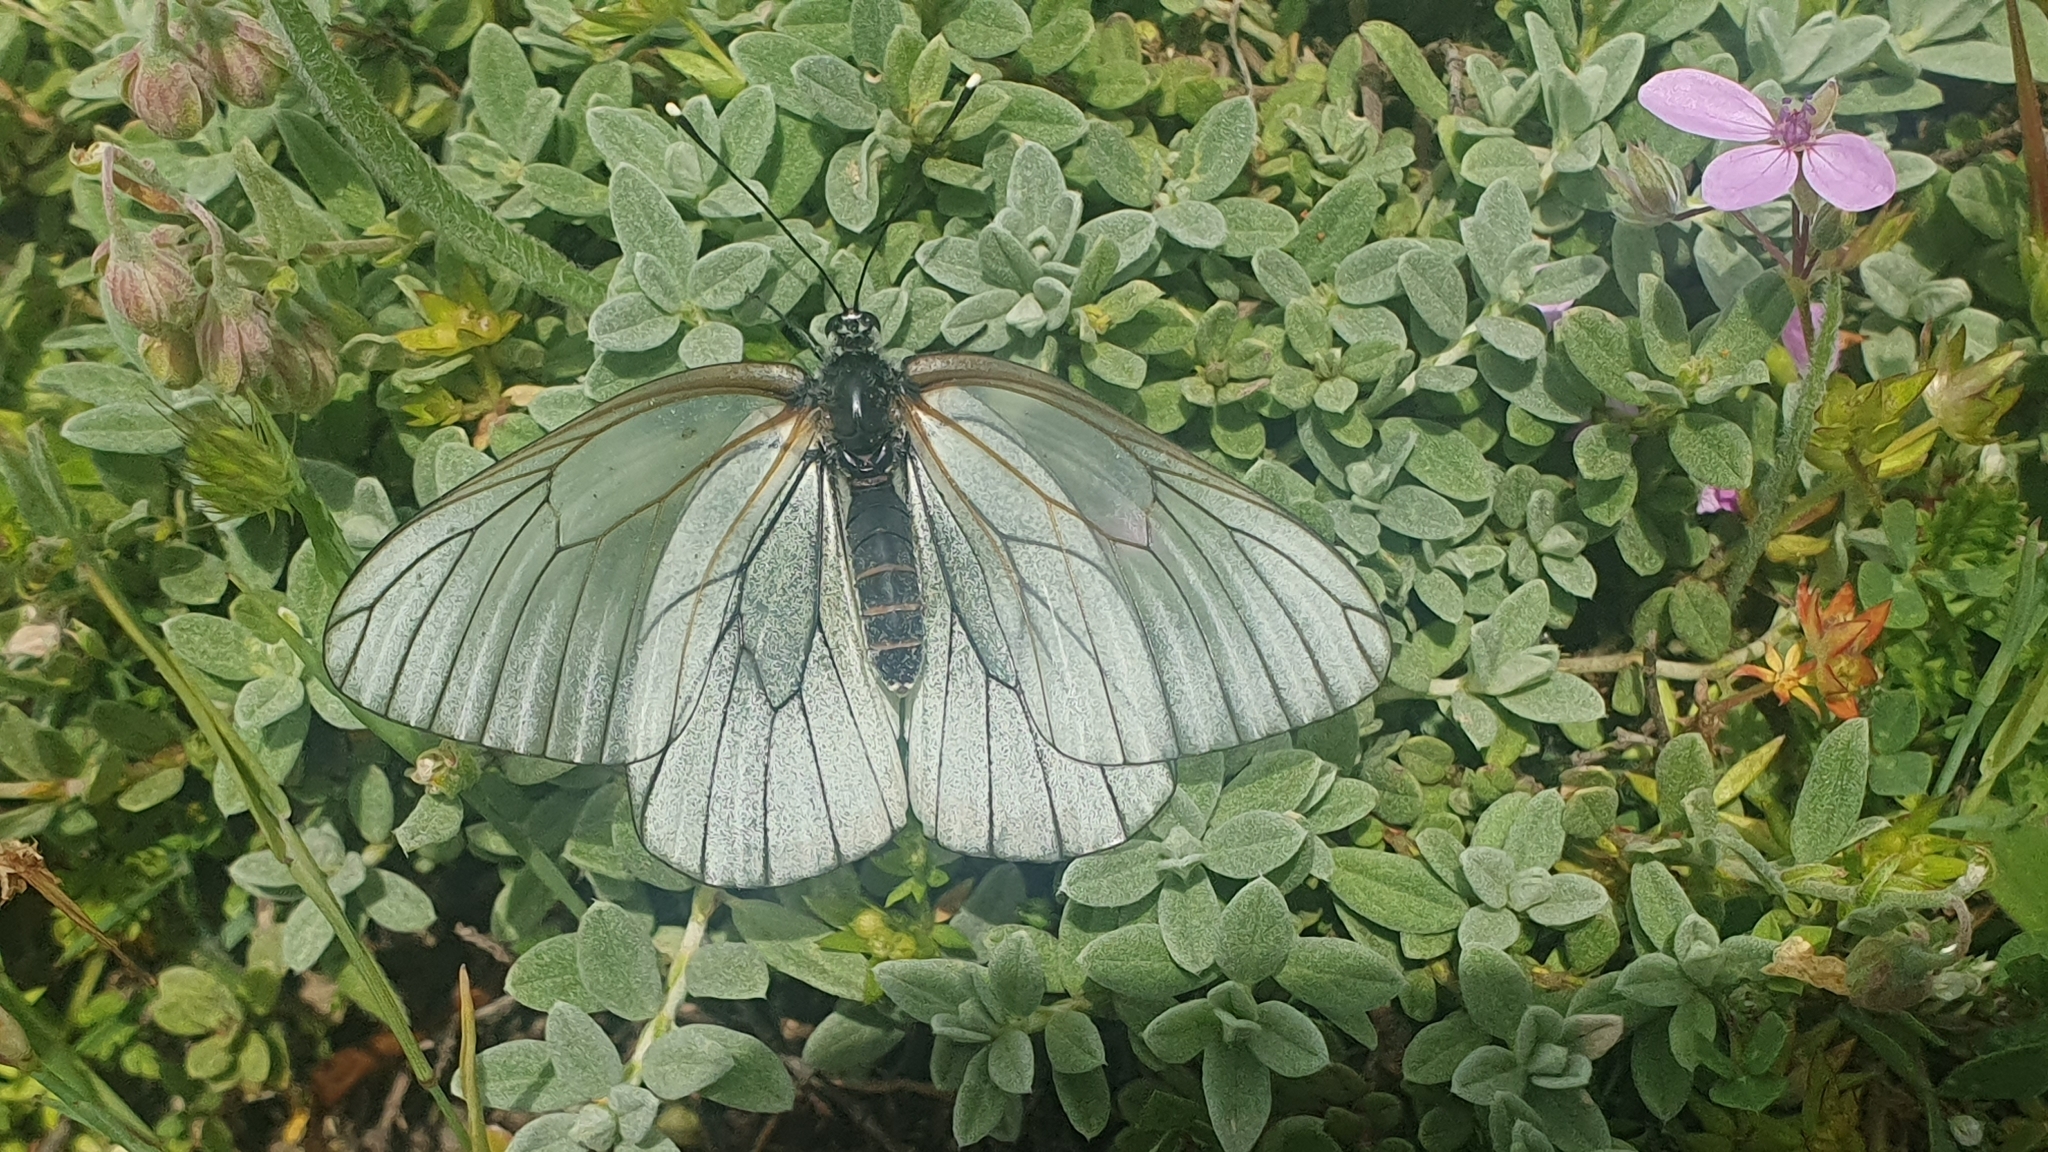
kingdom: Animalia
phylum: Arthropoda
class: Insecta
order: Lepidoptera
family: Pieridae
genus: Aporia
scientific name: Aporia crataegi
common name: Black-veined white
